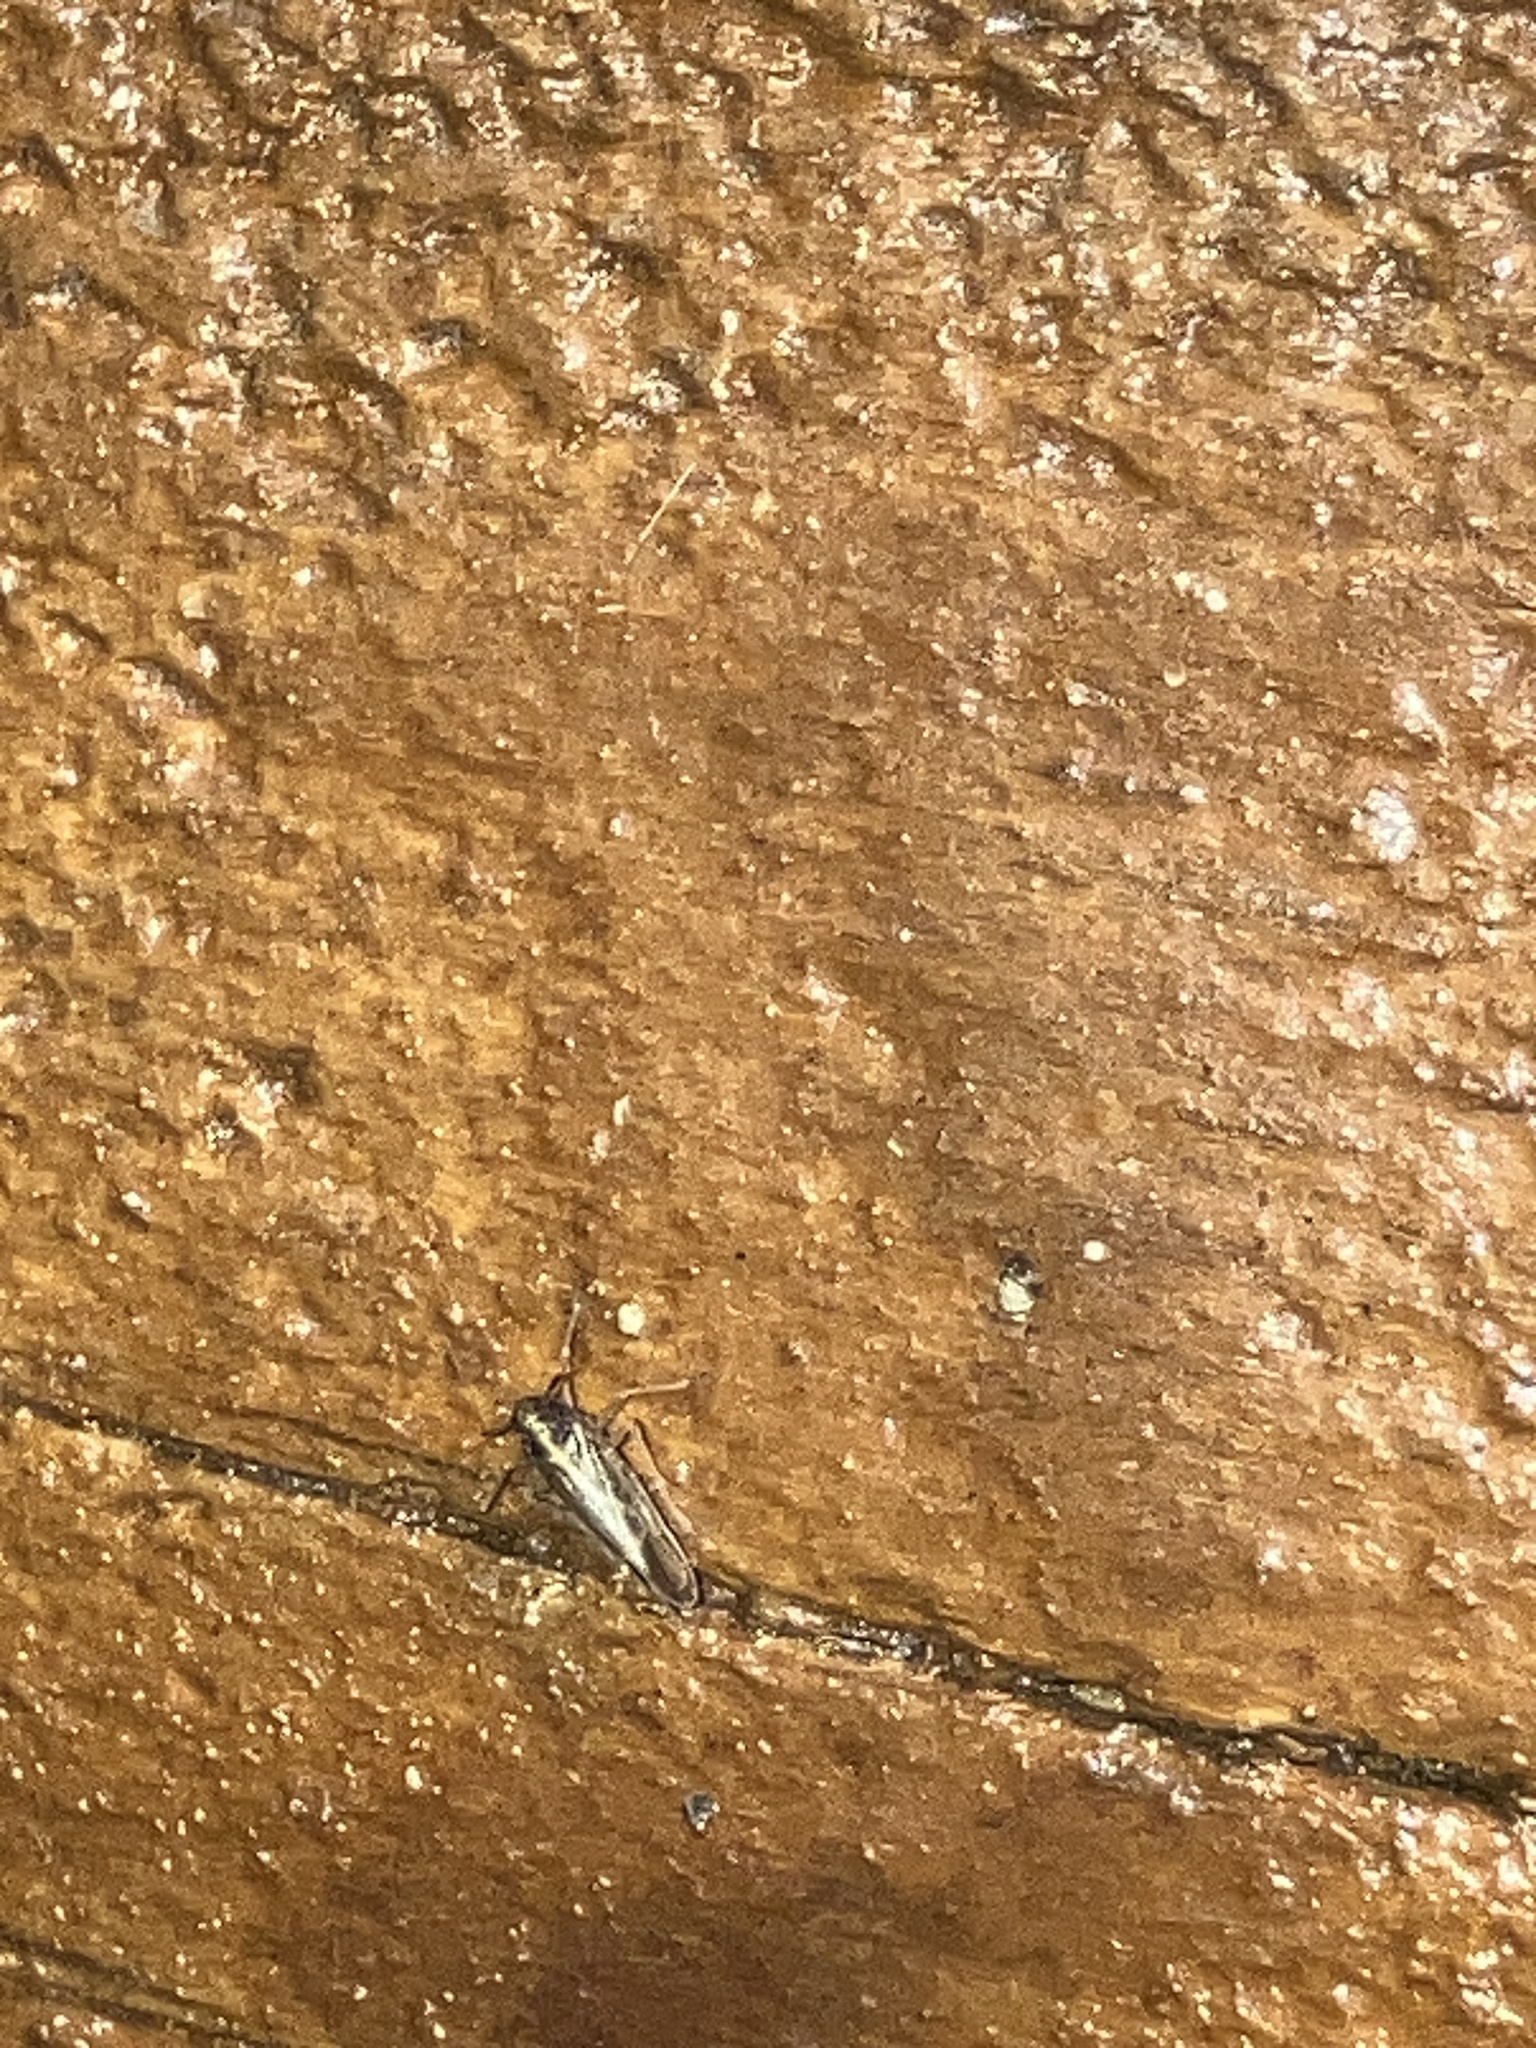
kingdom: Animalia
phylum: Arthropoda
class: Insecta
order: Hemiptera
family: Delphacidae
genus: Tarophagus
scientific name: Tarophagus colocasiae
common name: Taro planthopper
